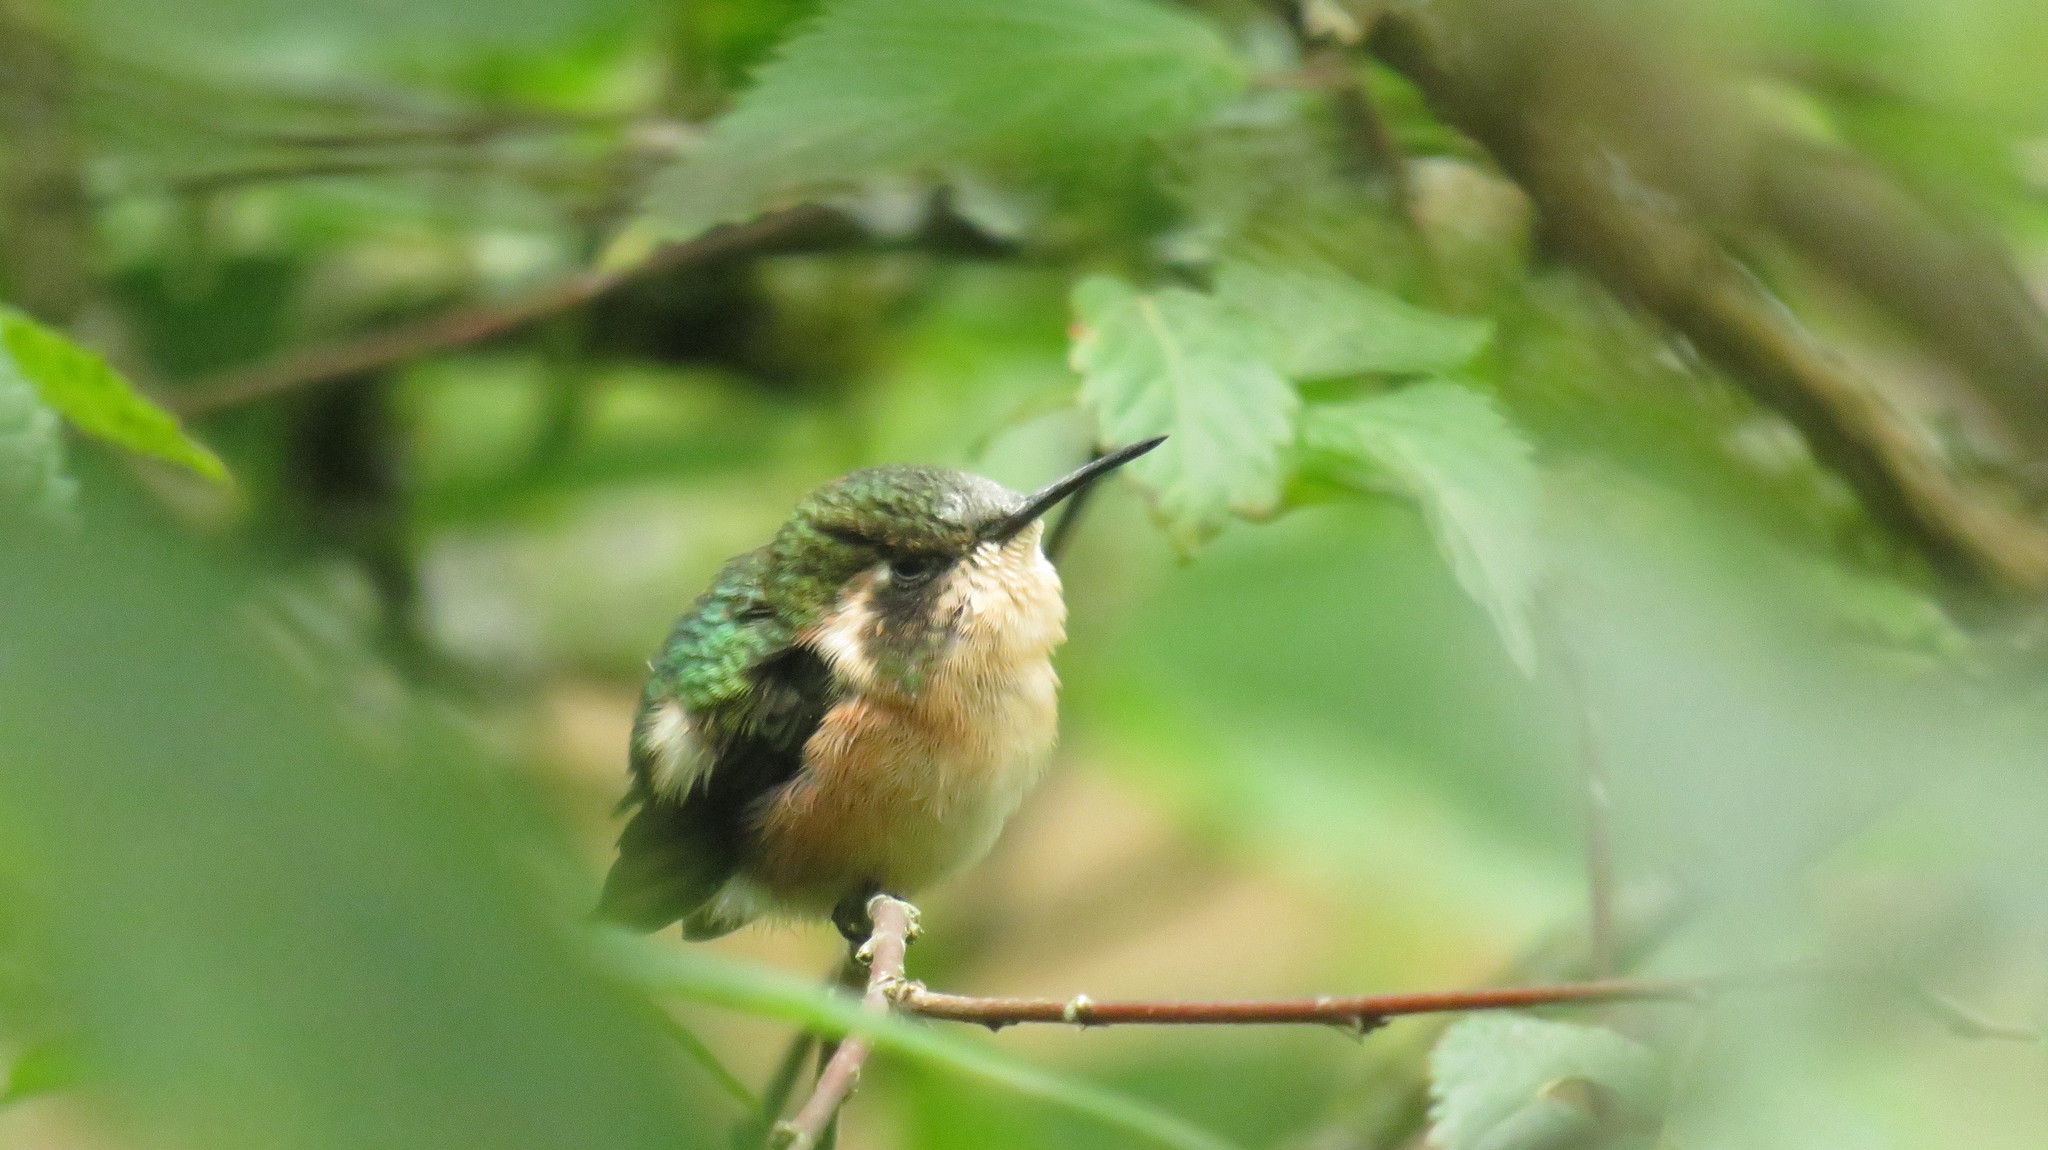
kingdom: Animalia
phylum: Chordata
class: Aves
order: Apodiformes
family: Trochilidae
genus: Microstilbon
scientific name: Microstilbon burmeisteri
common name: Slender-tailed woodstar
